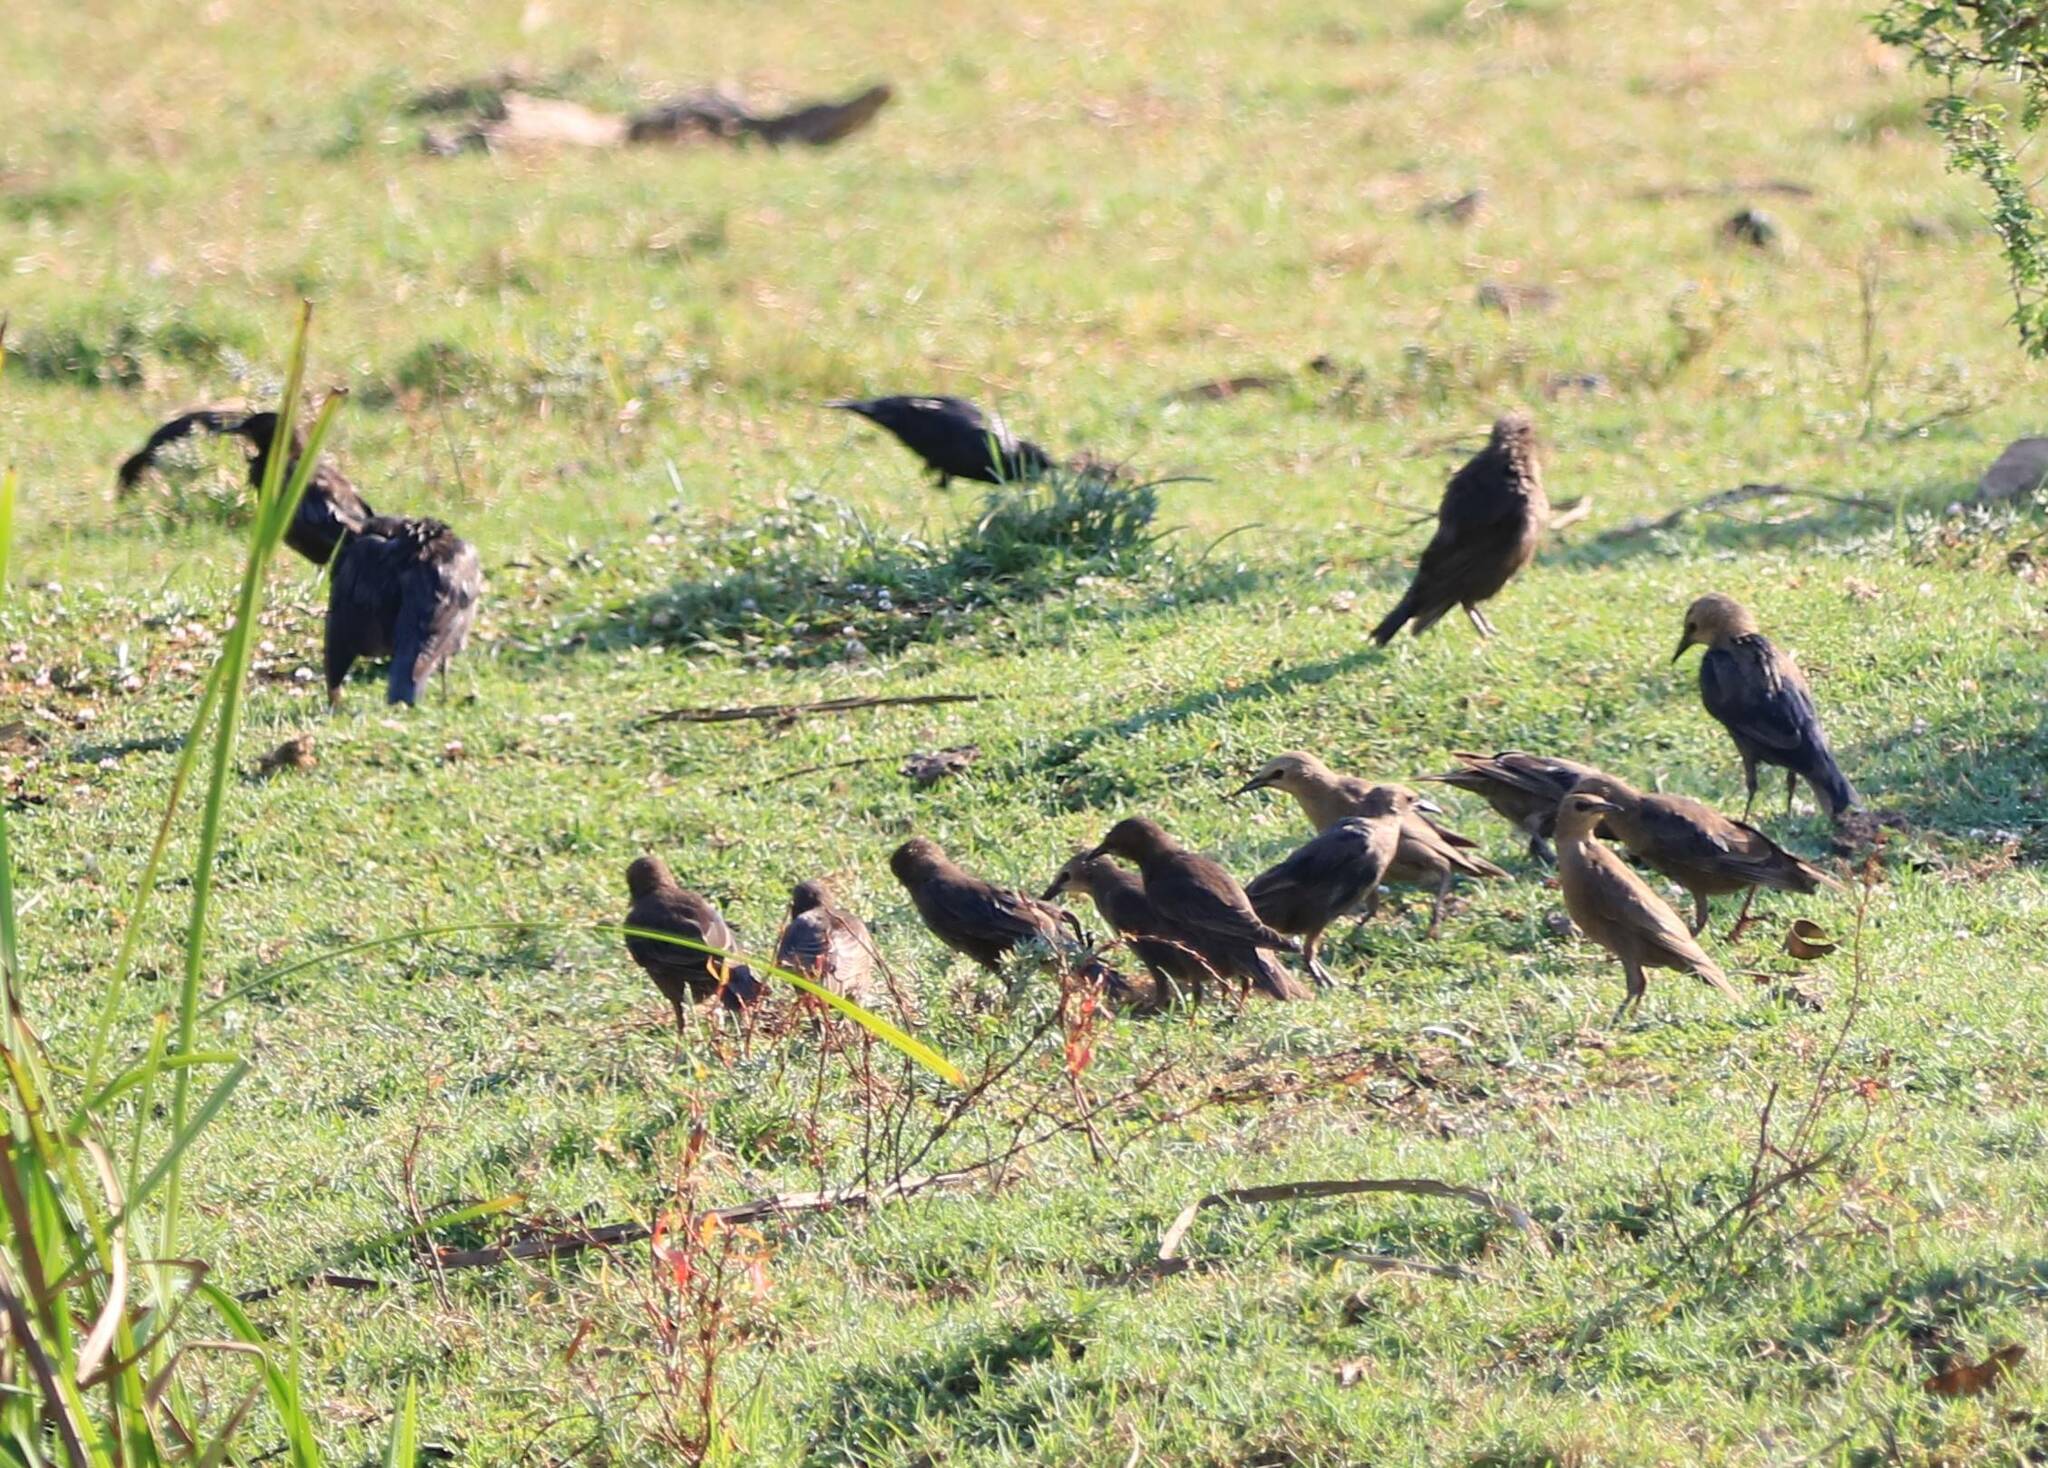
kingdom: Animalia
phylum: Chordata
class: Aves
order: Passeriformes
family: Sturnidae
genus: Sturnus
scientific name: Sturnus unicolor
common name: Spotless starling
